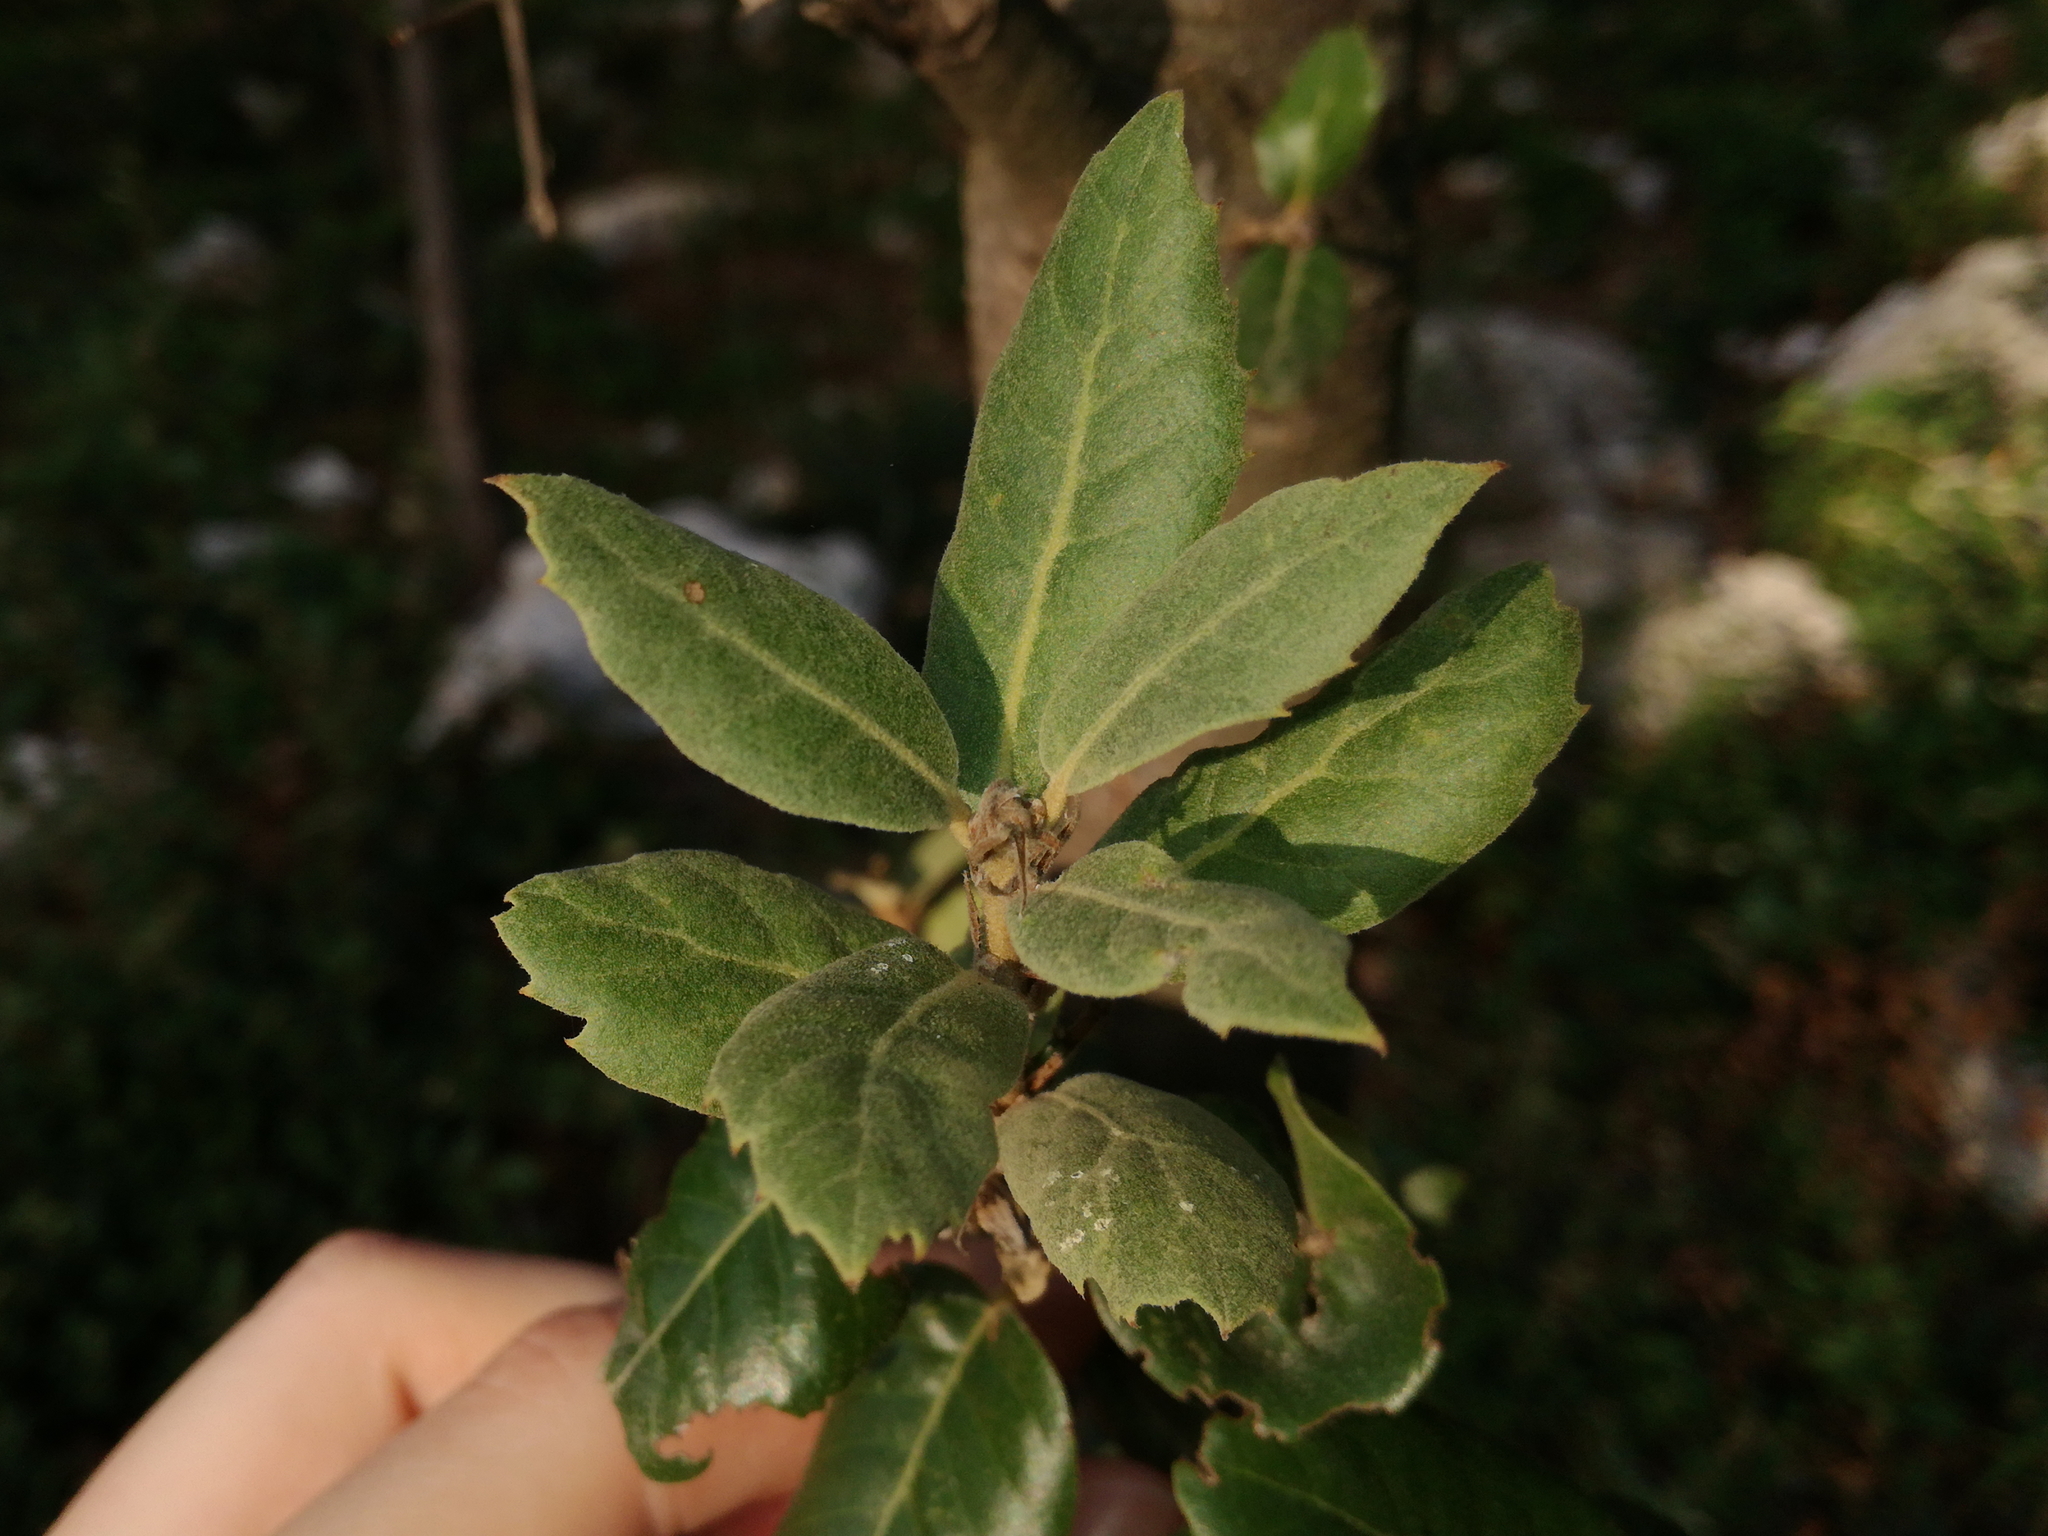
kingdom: Plantae
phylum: Tracheophyta
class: Magnoliopsida
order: Fagales
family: Fagaceae
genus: Quercus
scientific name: Quercus ilex
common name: Evergreen oak
